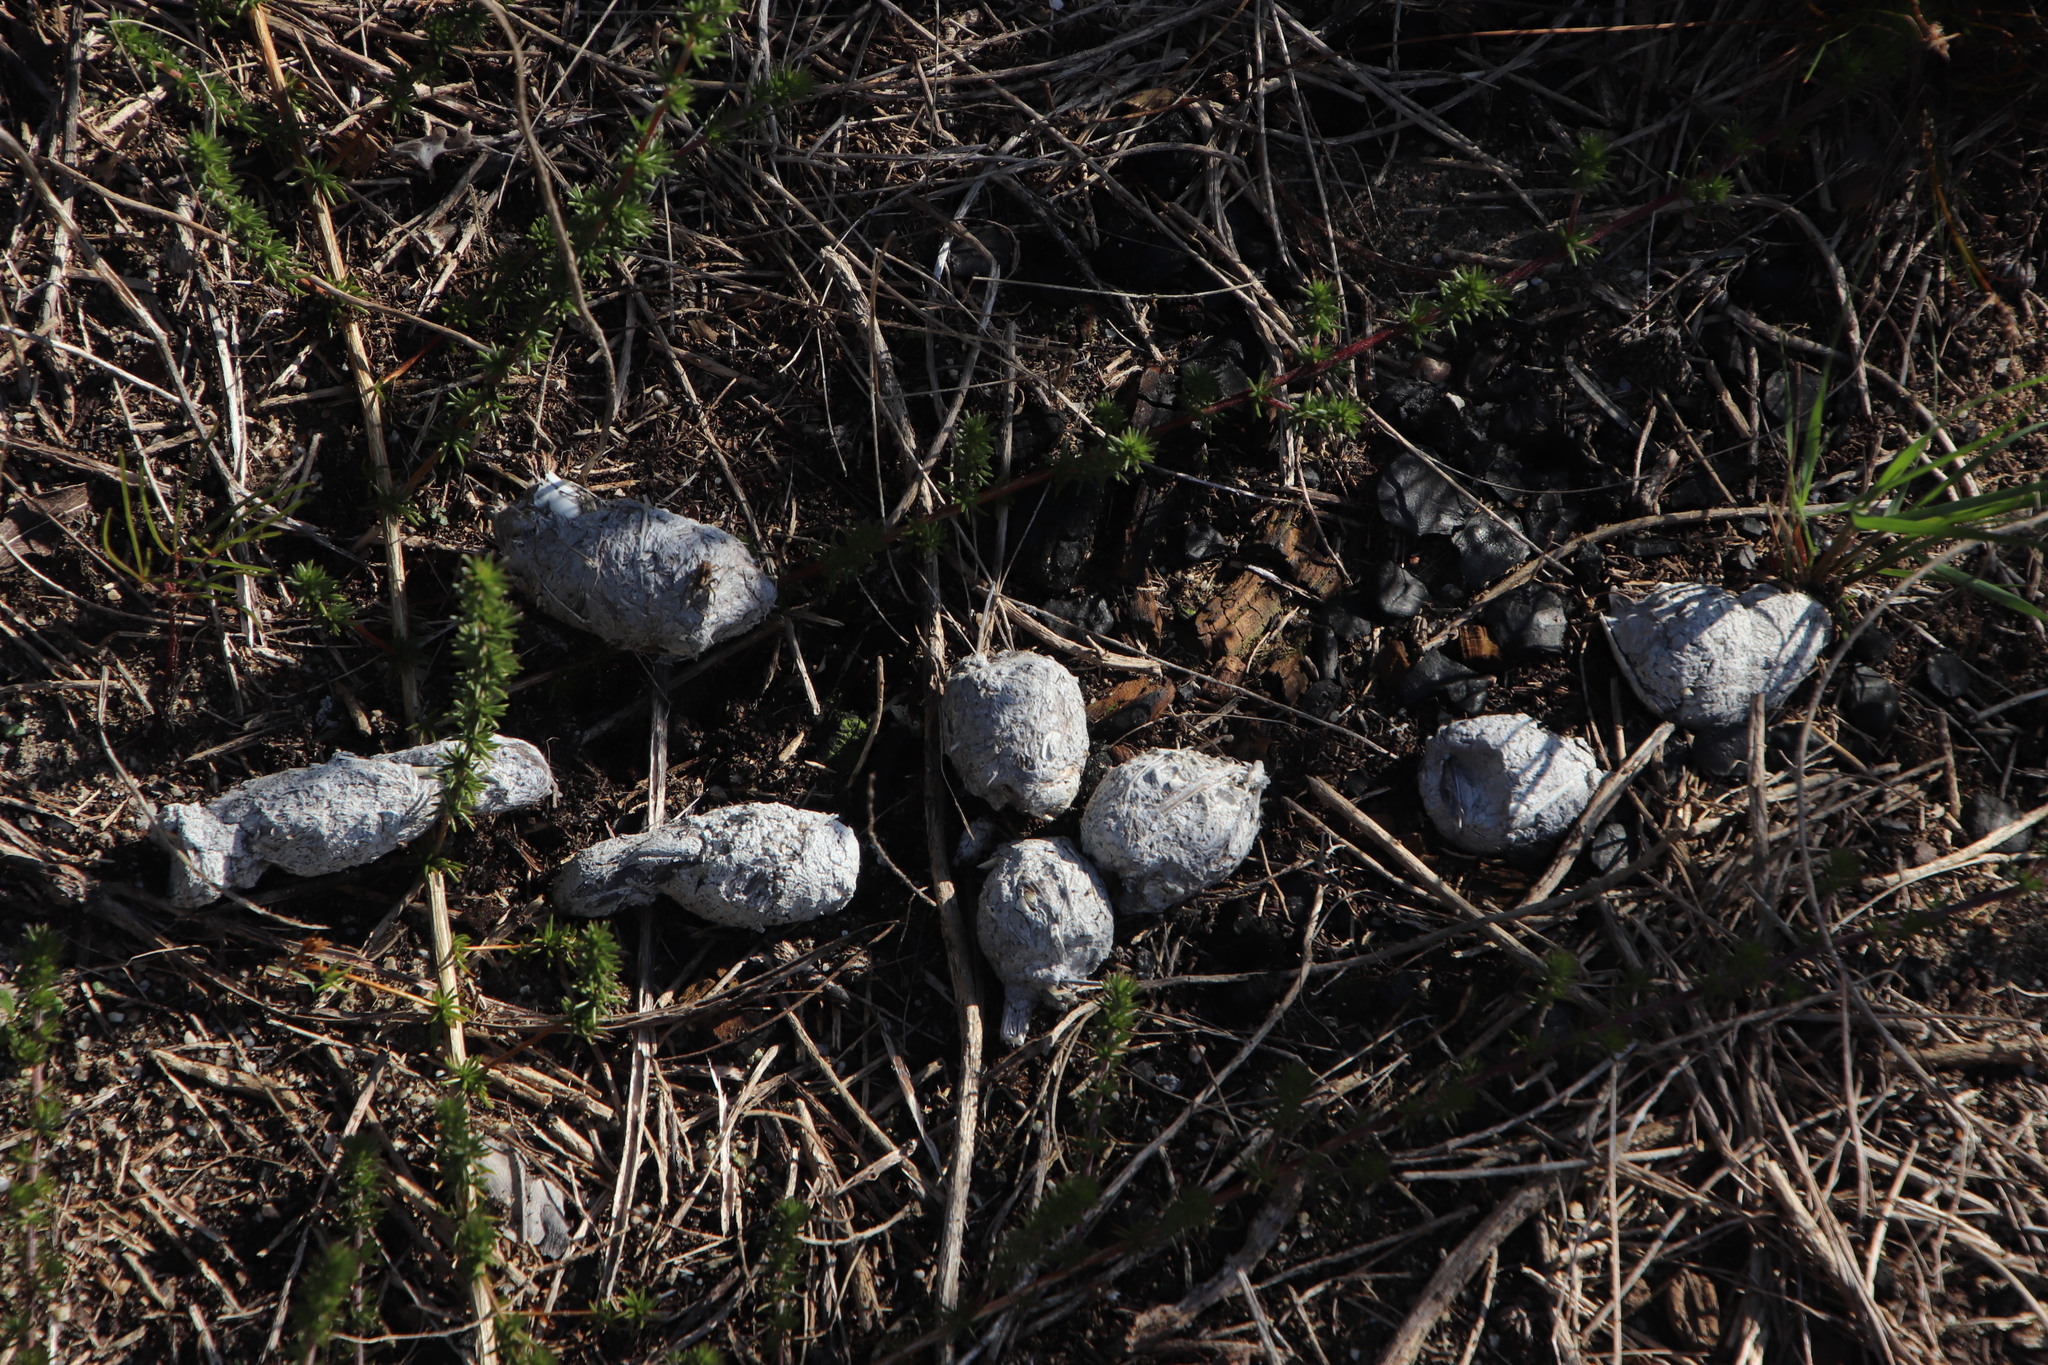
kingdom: Animalia
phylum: Chordata
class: Mammalia
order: Carnivora
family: Felidae
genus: Caracal
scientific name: Caracal caracal
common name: Caracal
